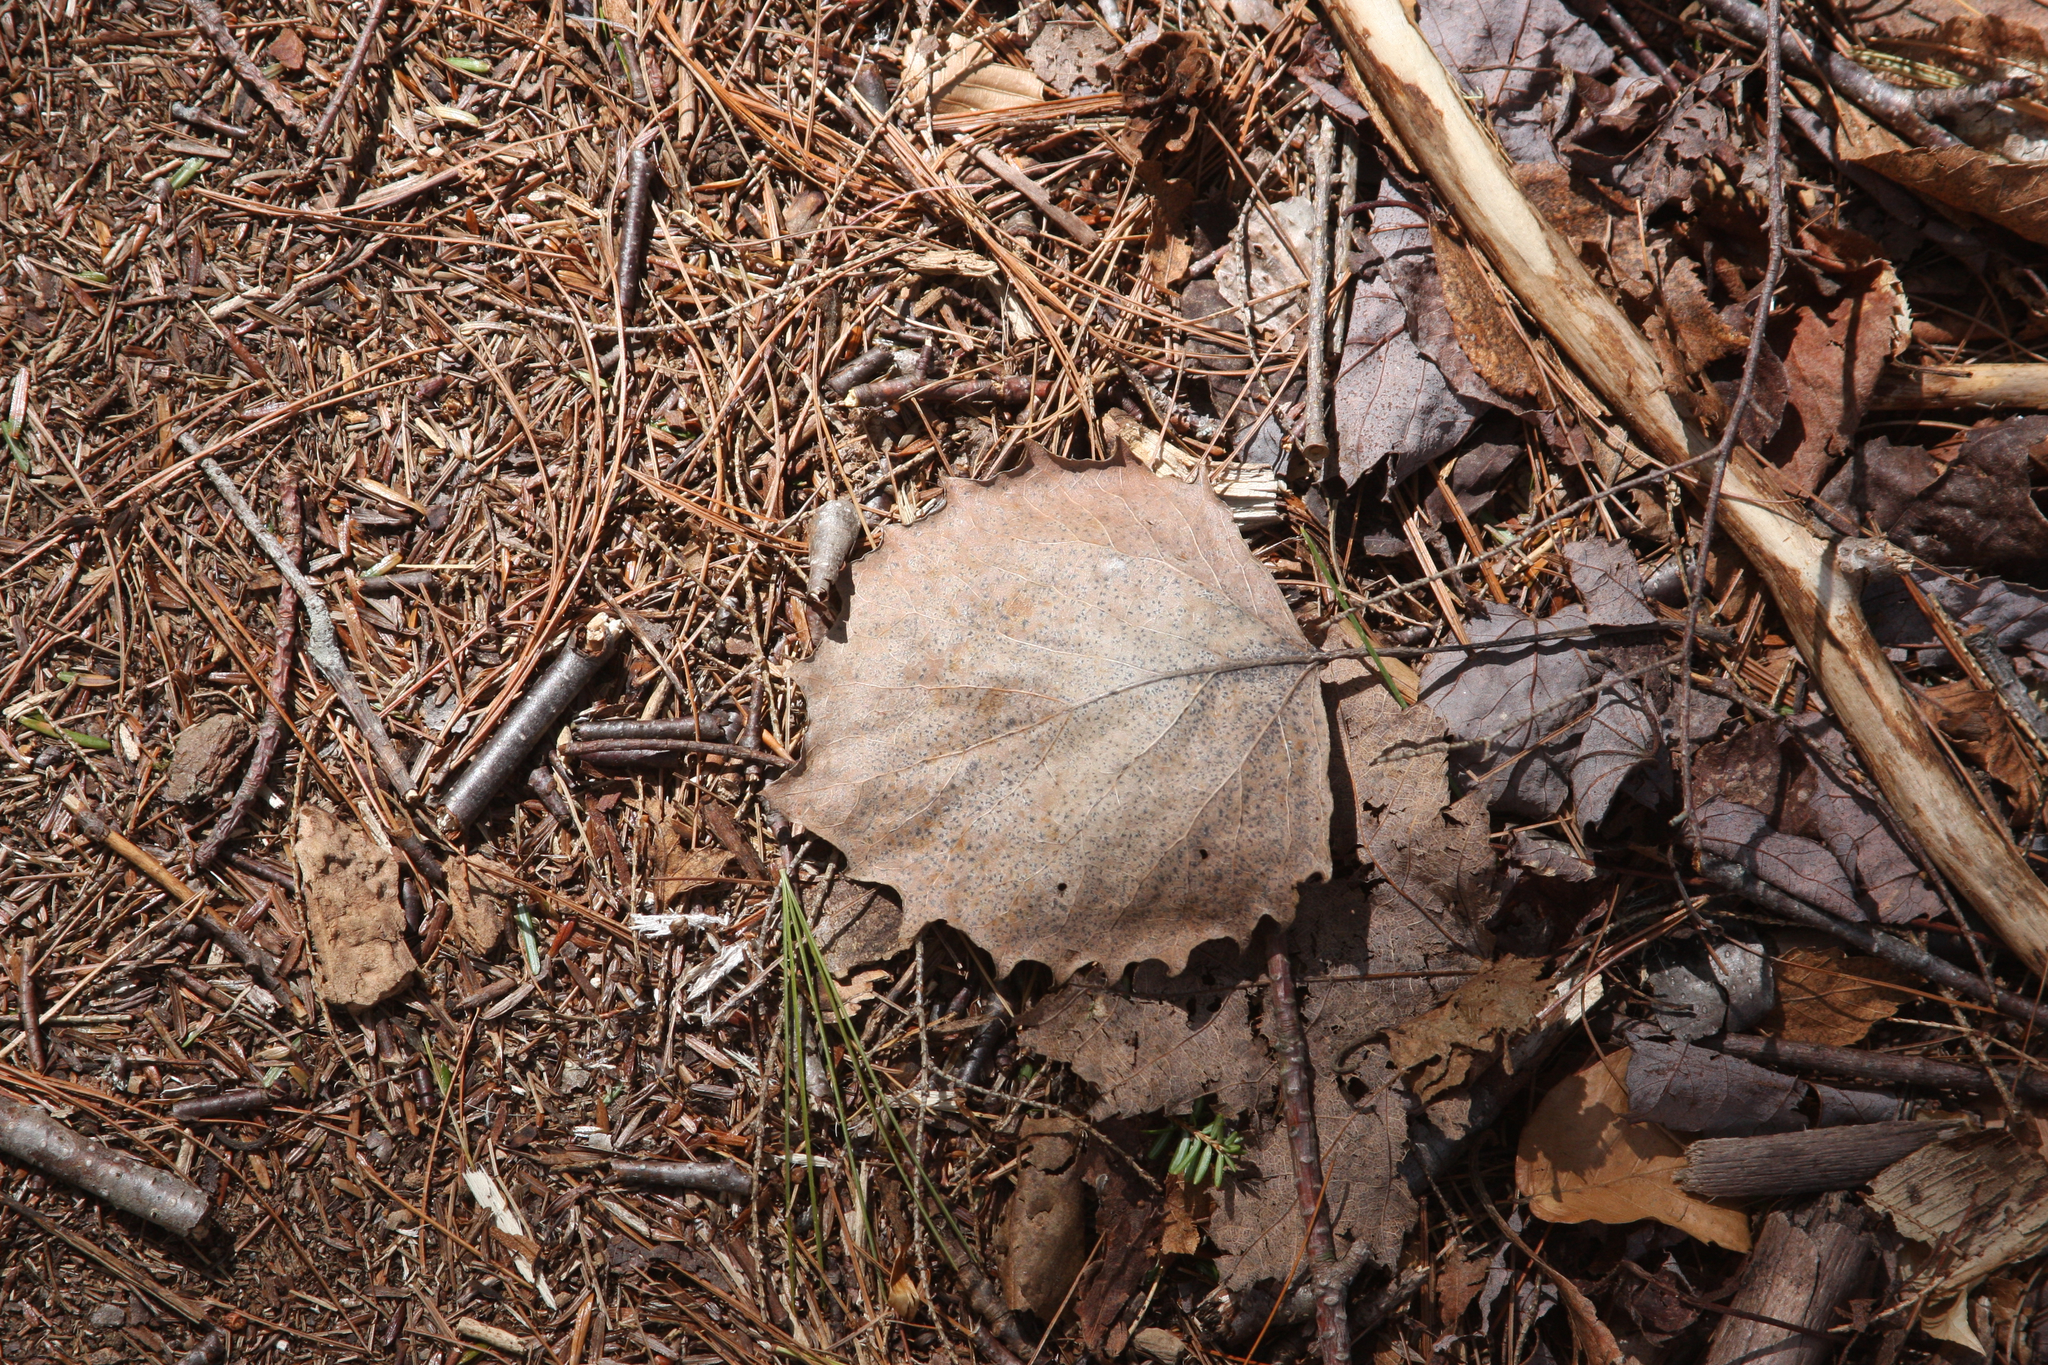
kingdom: Plantae
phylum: Tracheophyta
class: Magnoliopsida
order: Malpighiales
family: Salicaceae
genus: Populus
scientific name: Populus grandidentata
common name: Bigtooth aspen
